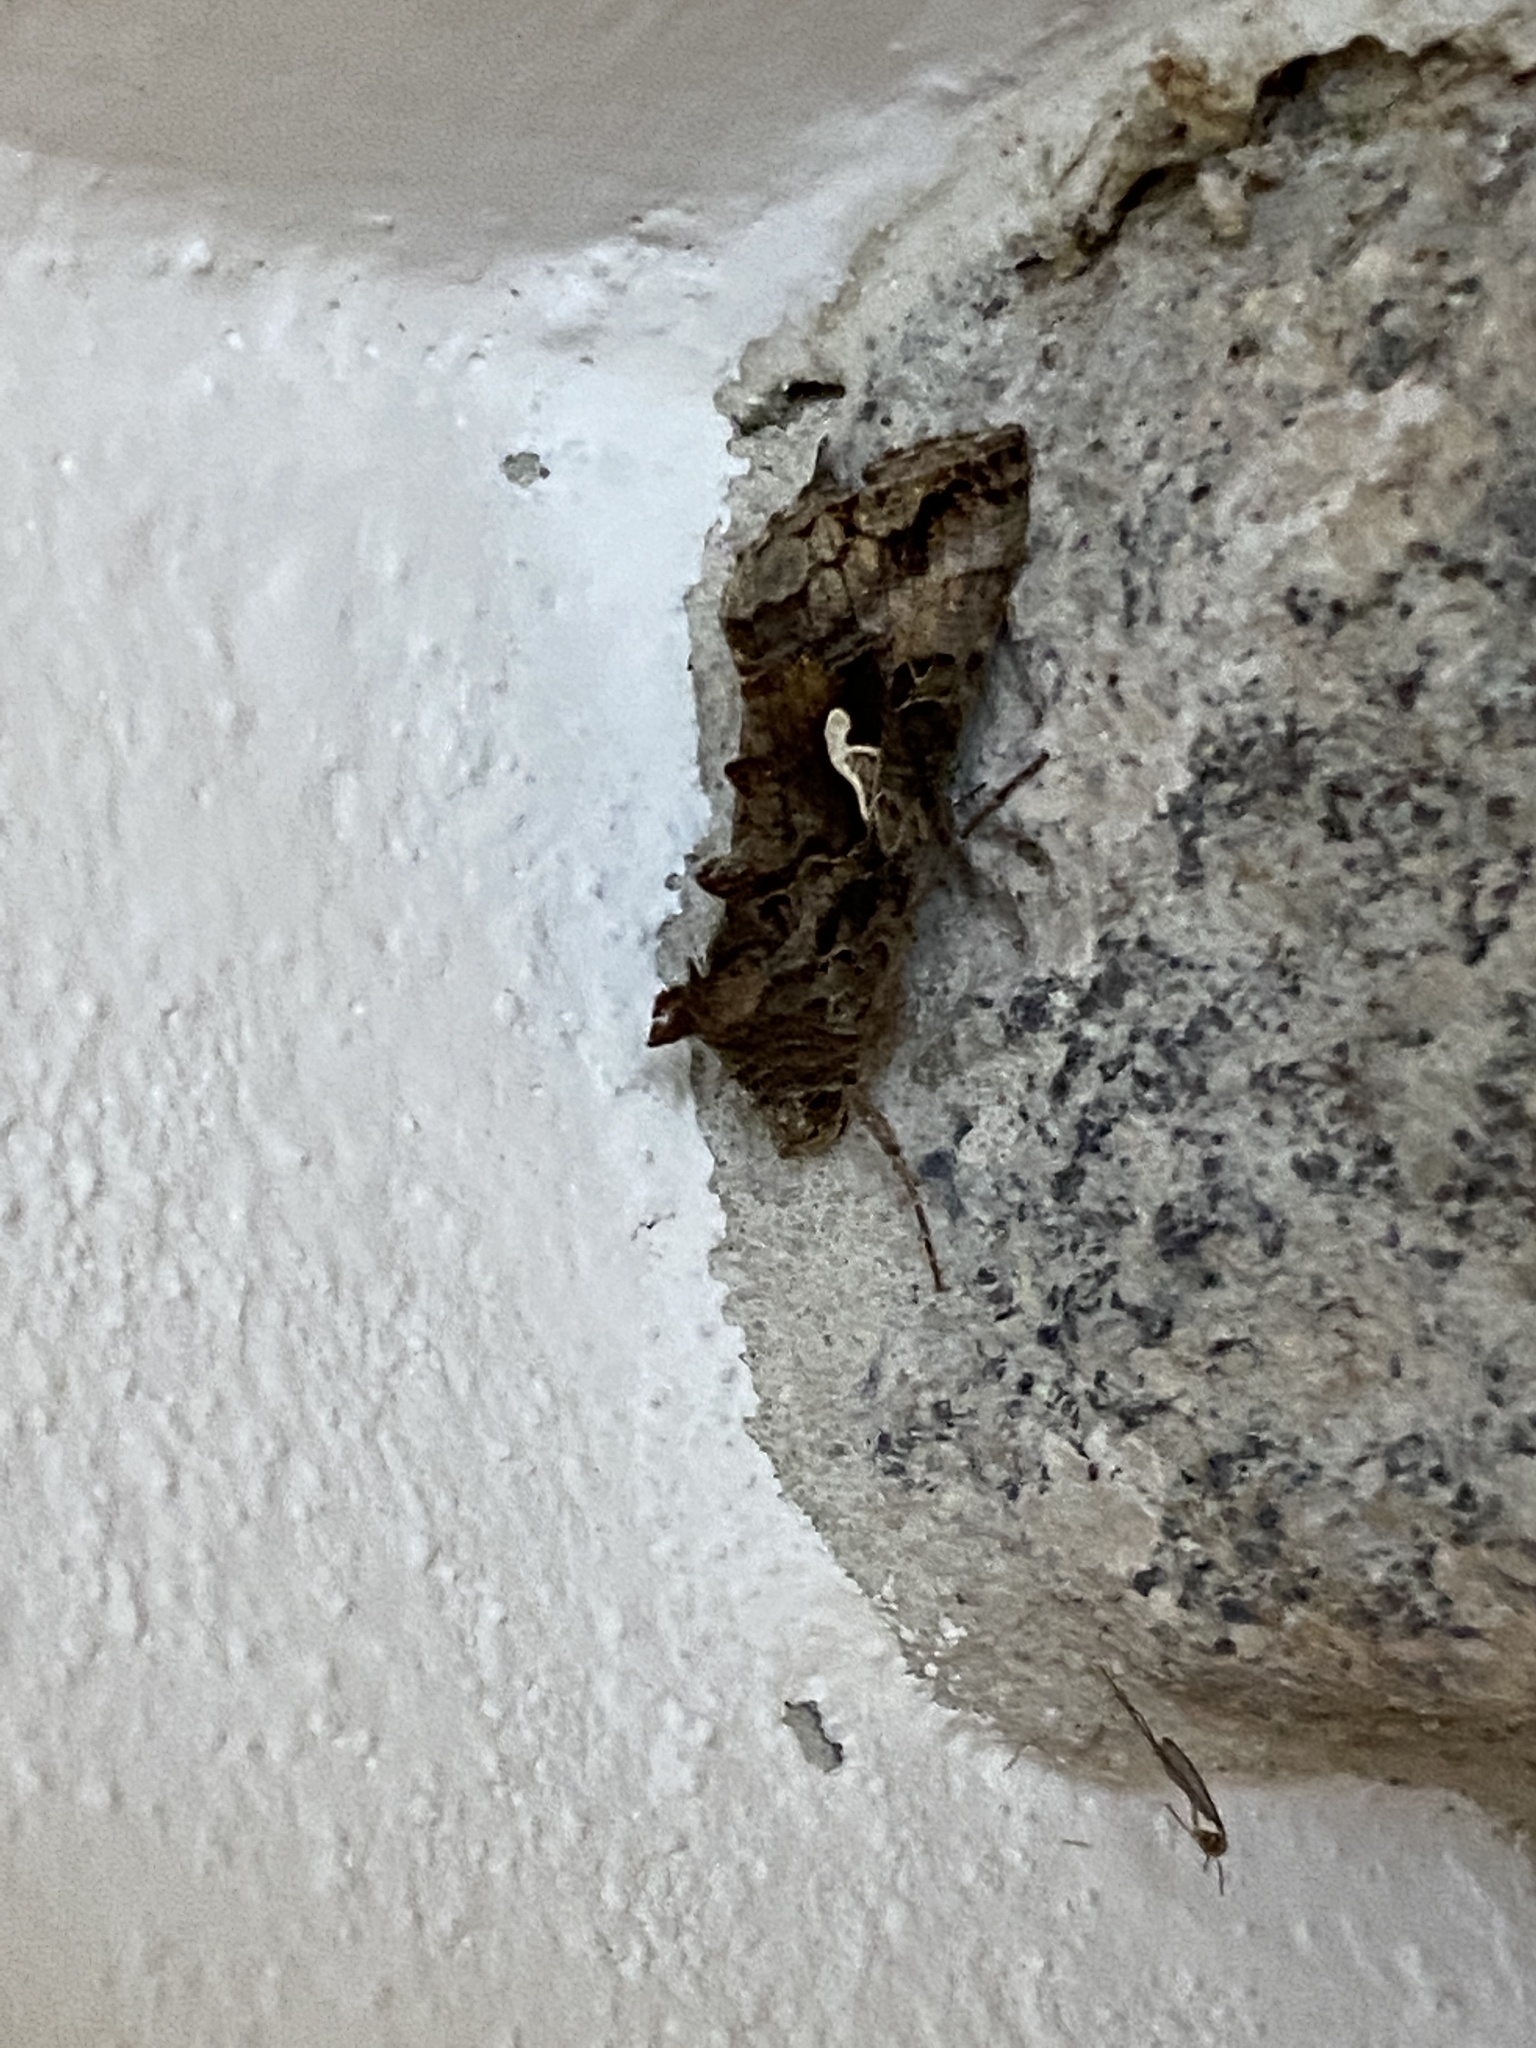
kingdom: Animalia
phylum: Arthropoda
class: Insecta
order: Lepidoptera
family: Noctuidae
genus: Autographa
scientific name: Autographa gamma
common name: Silver y
